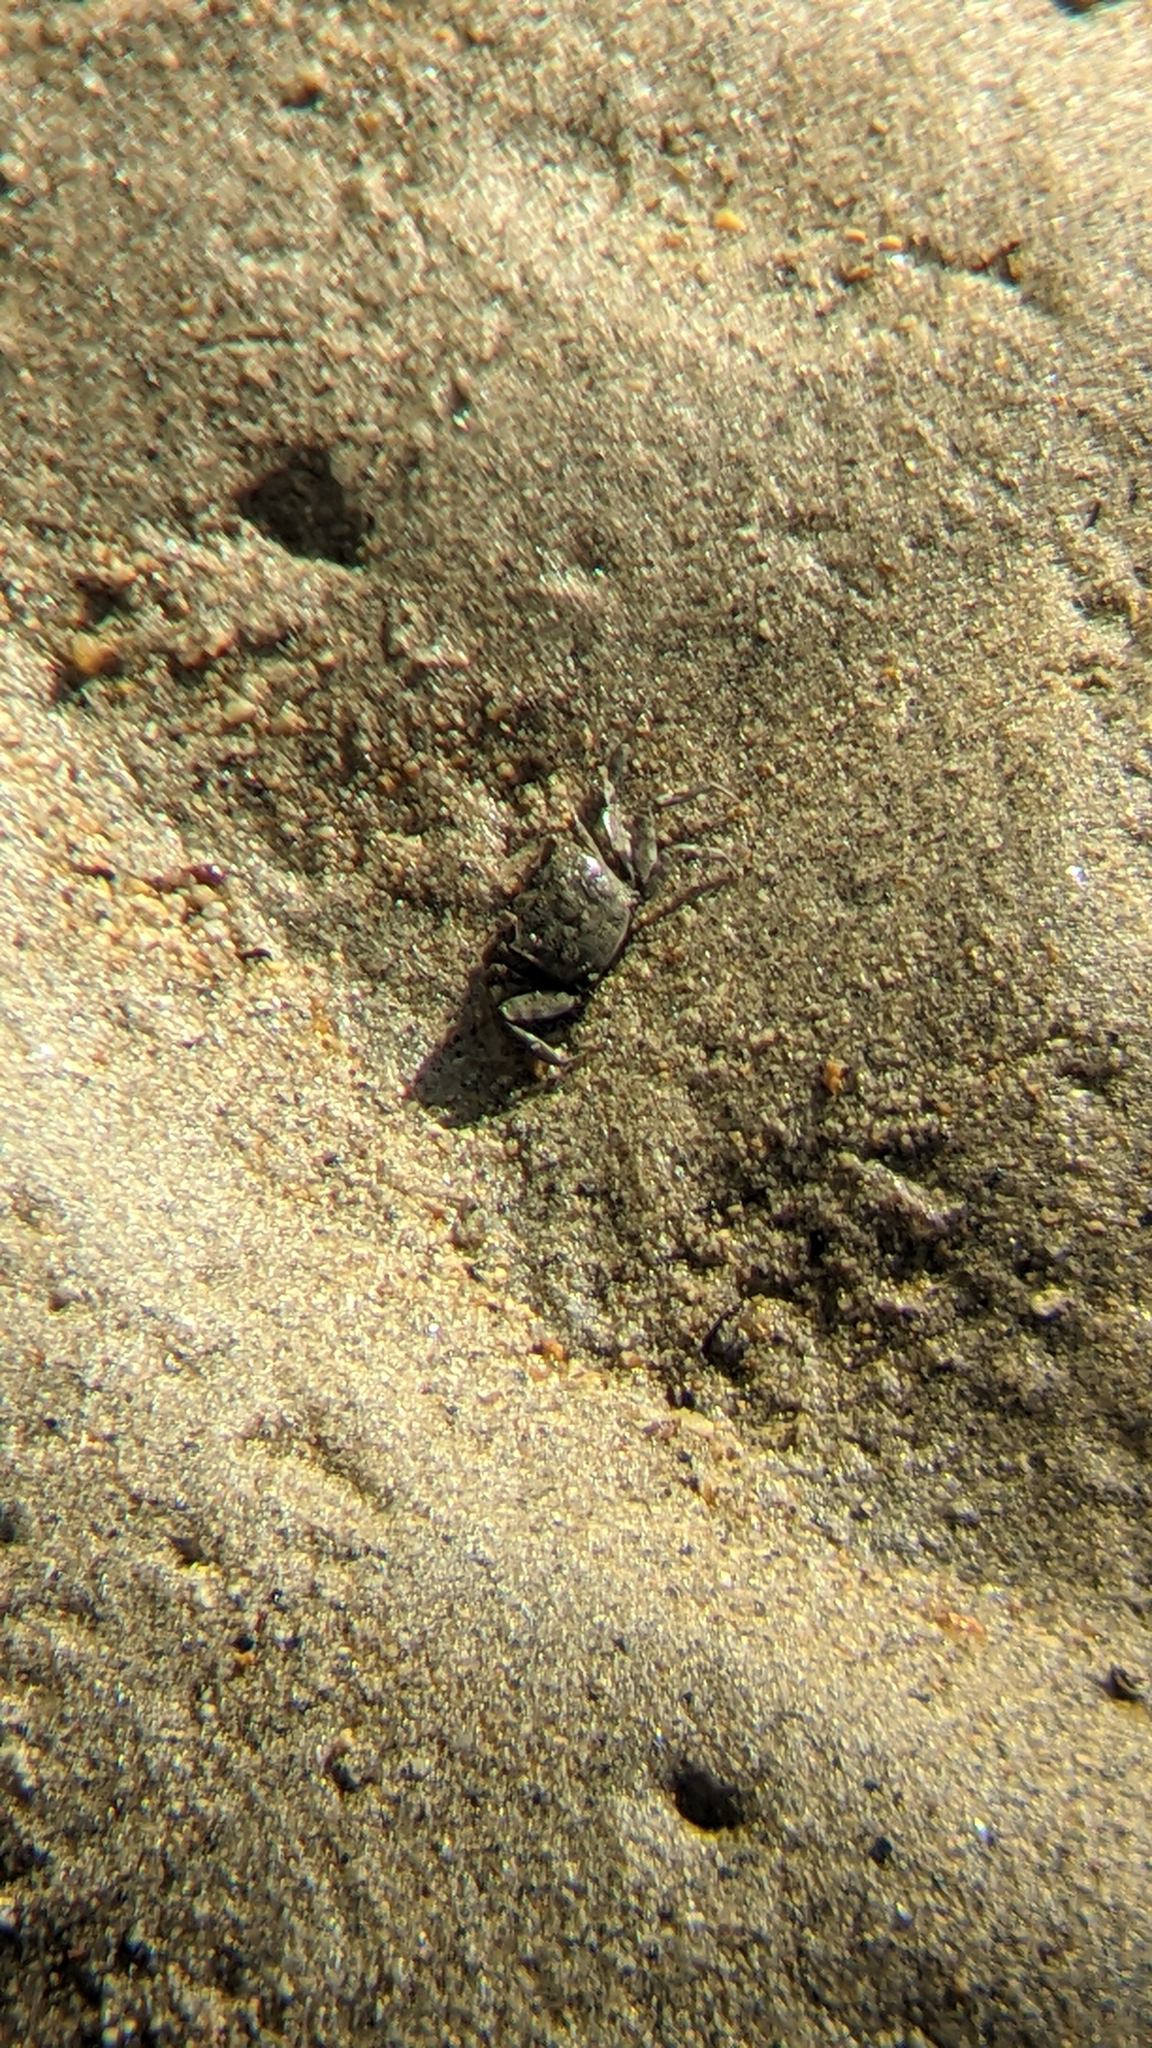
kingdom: Animalia
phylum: Arthropoda
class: Malacostraca
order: Decapoda
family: Varunidae
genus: Austrohelice
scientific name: Austrohelice crassa
